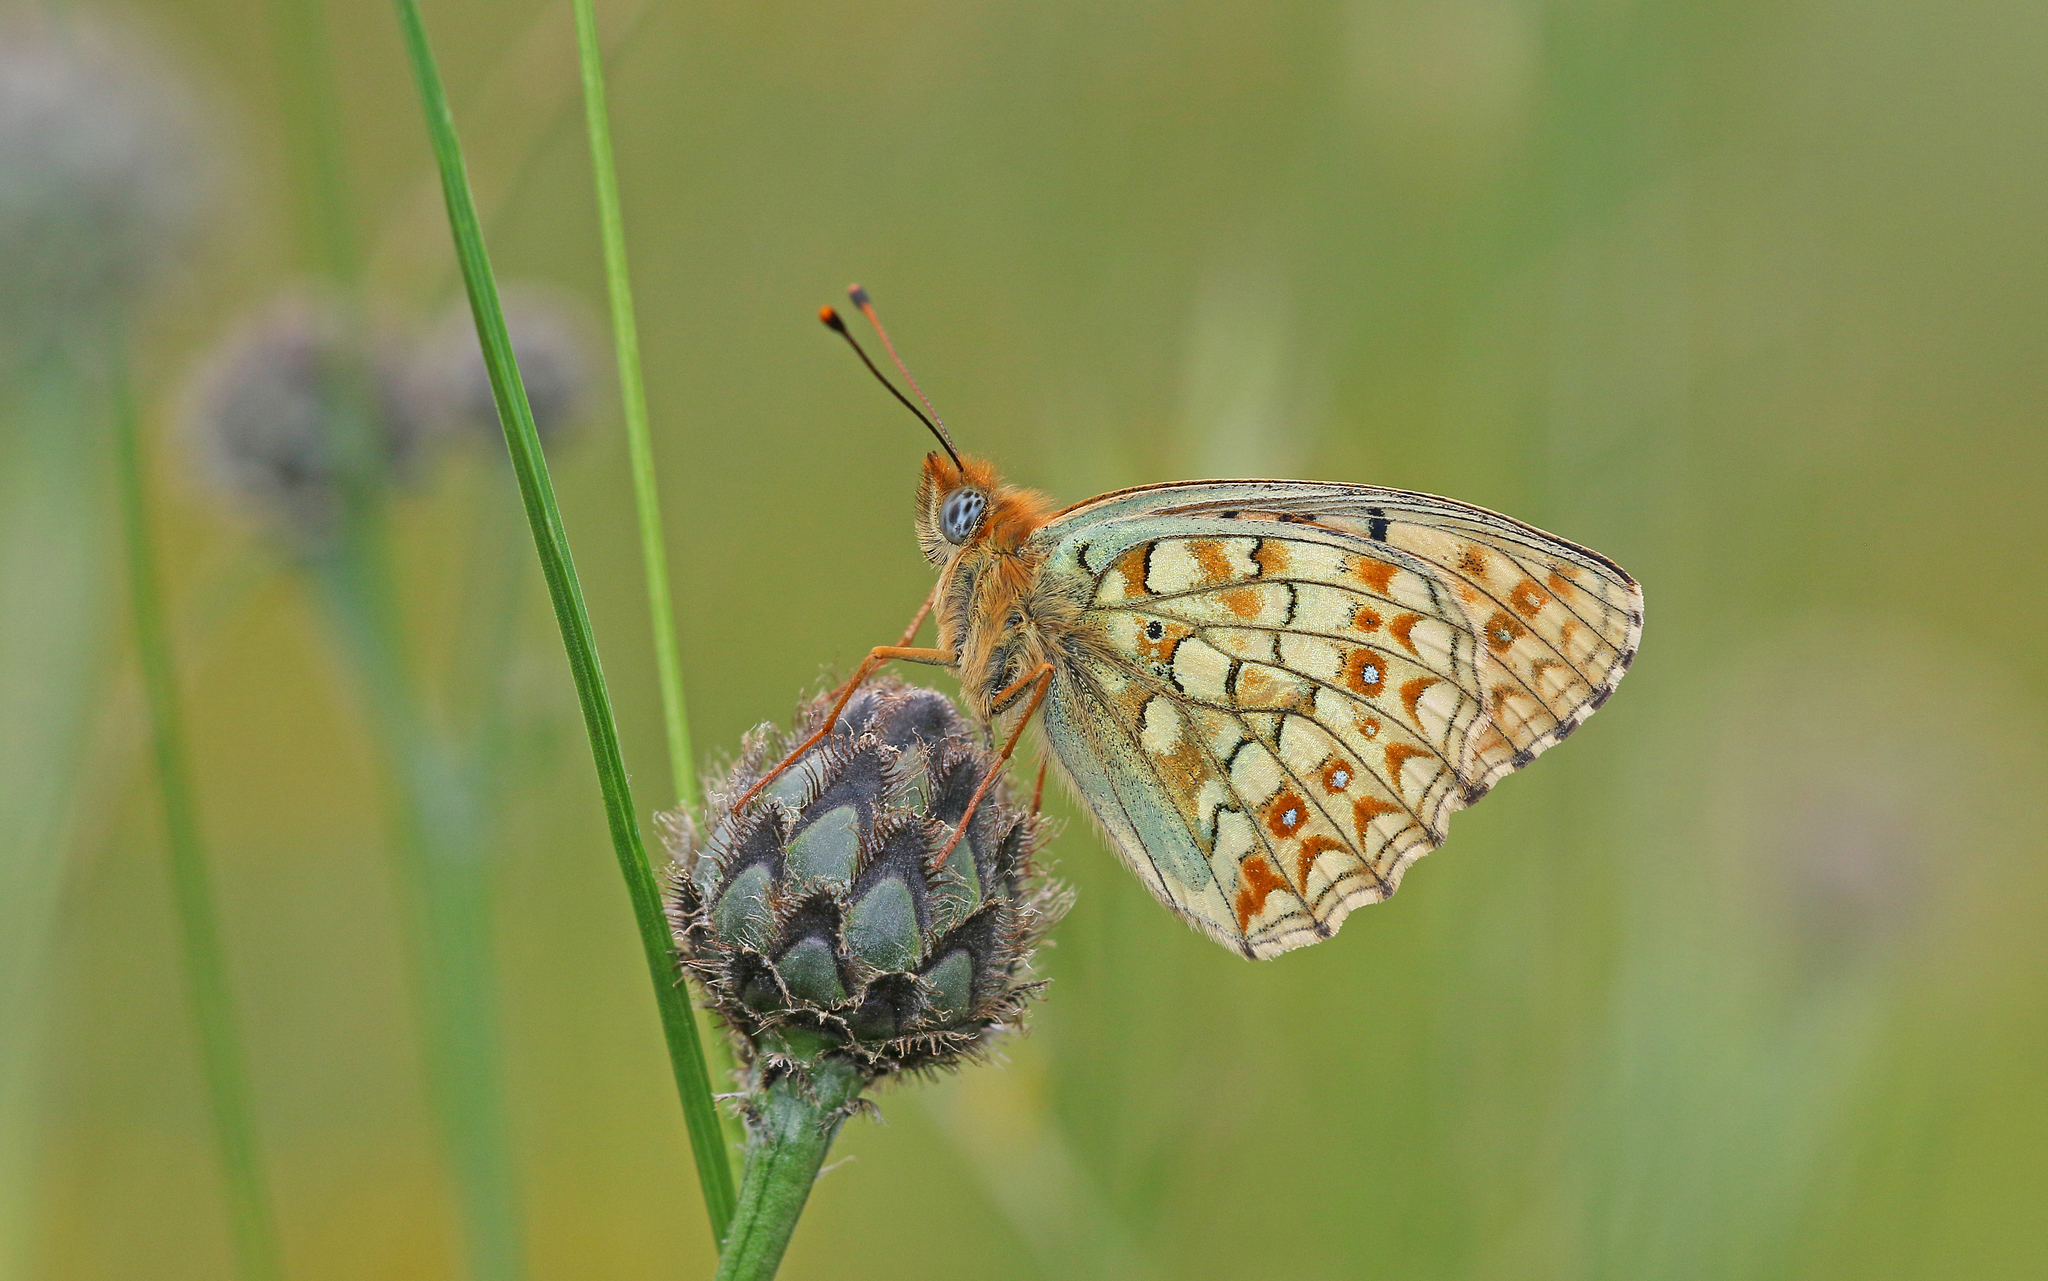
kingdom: Animalia
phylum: Arthropoda
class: Insecta
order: Lepidoptera
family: Nymphalidae
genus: Fabriciana
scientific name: Fabriciana niobe
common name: Niobe fritillary
